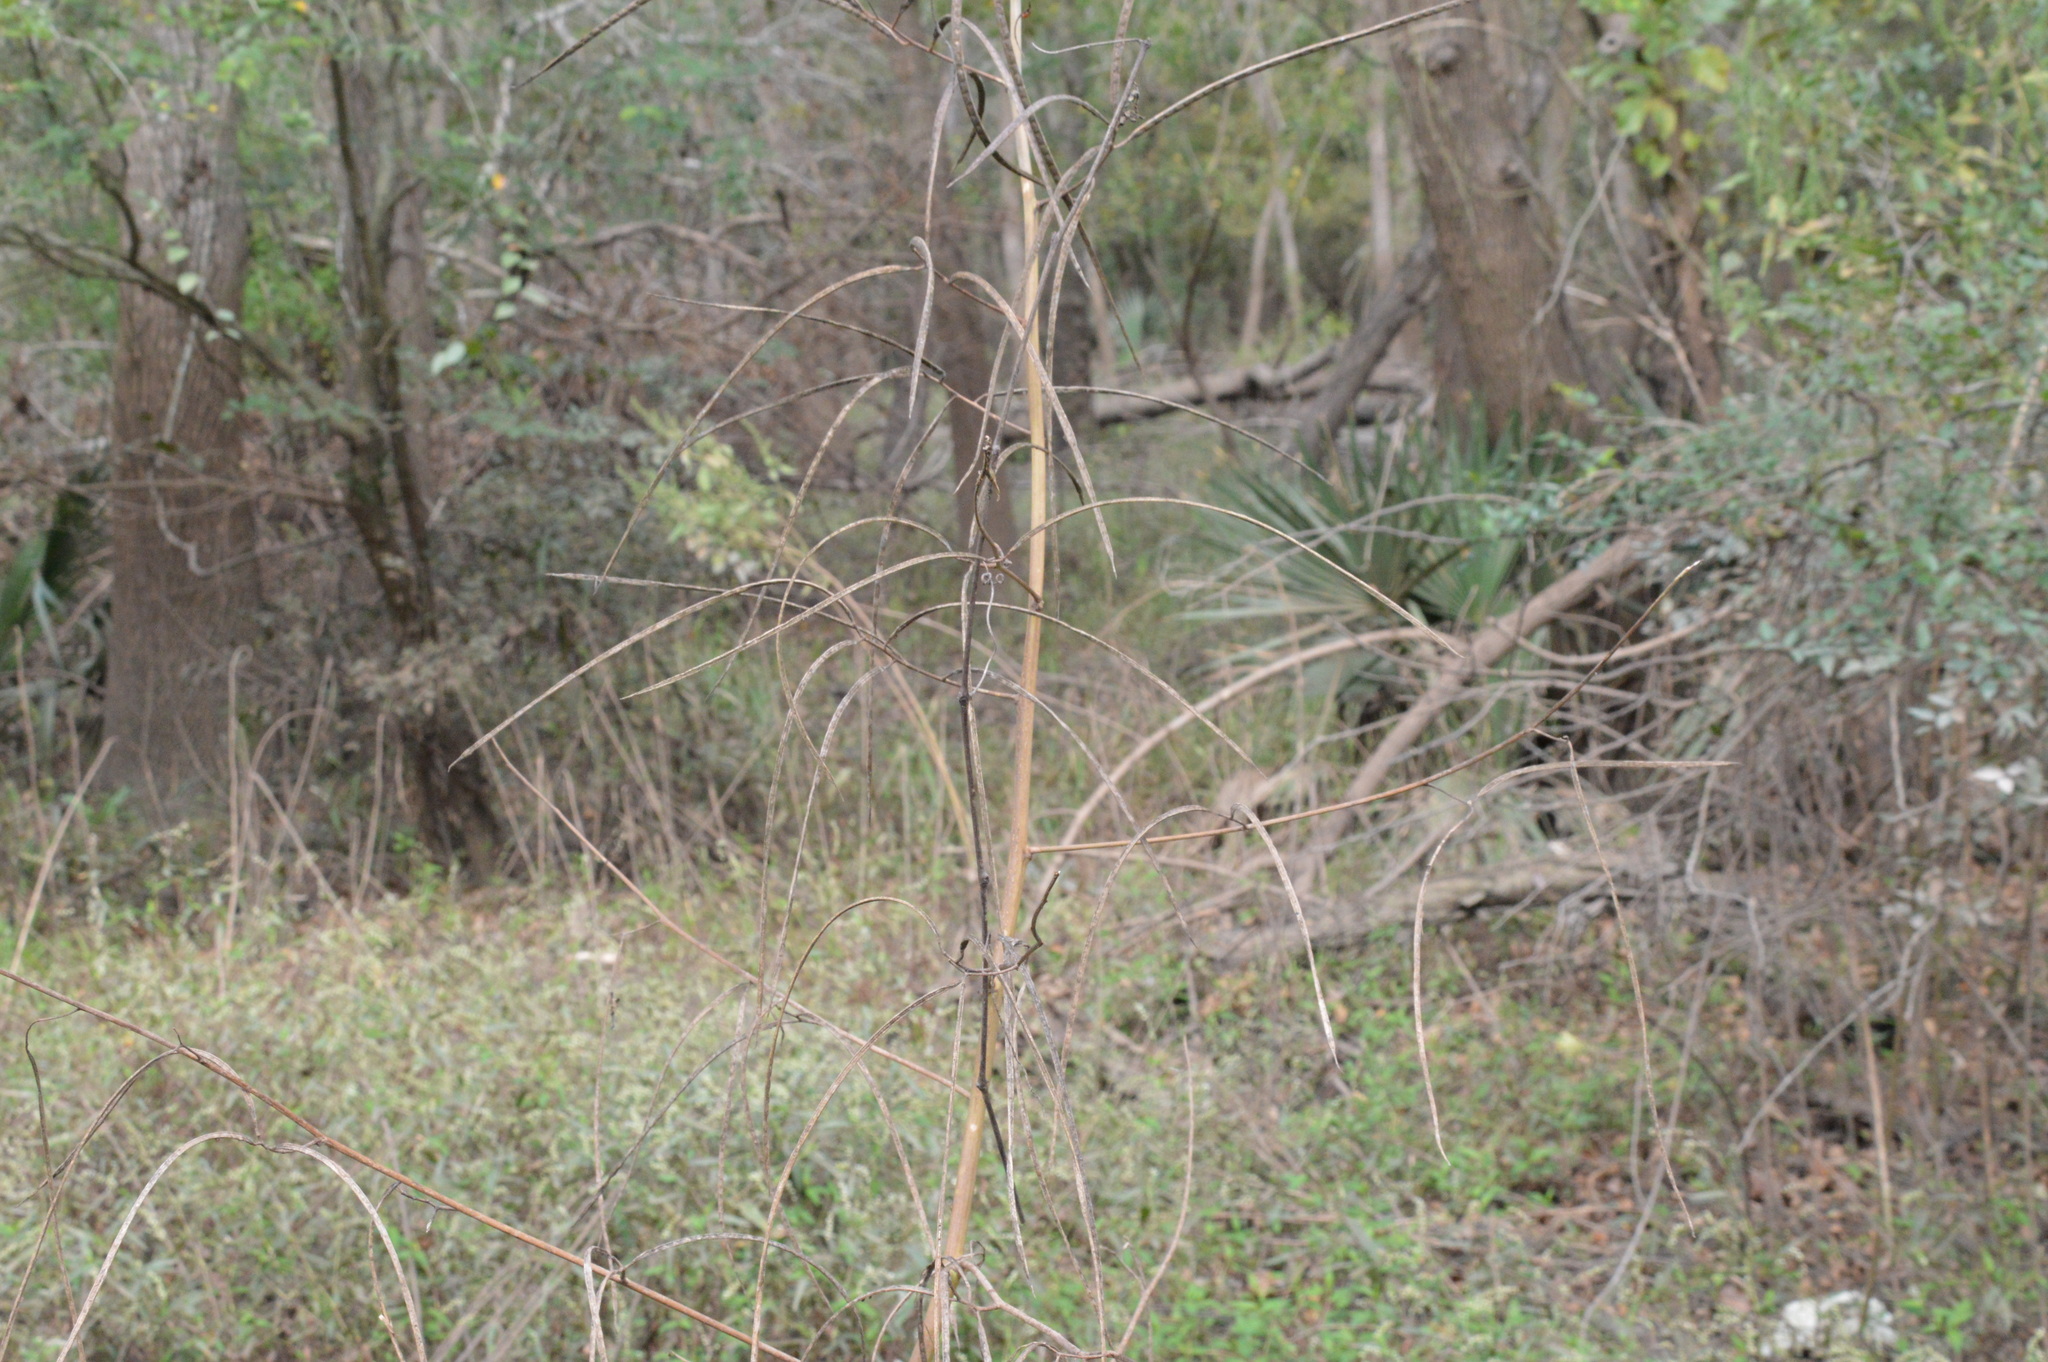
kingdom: Plantae
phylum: Tracheophyta
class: Magnoliopsida
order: Fabales
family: Fabaceae
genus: Sesbania
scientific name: Sesbania herbacea
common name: Bigpod sesbania
